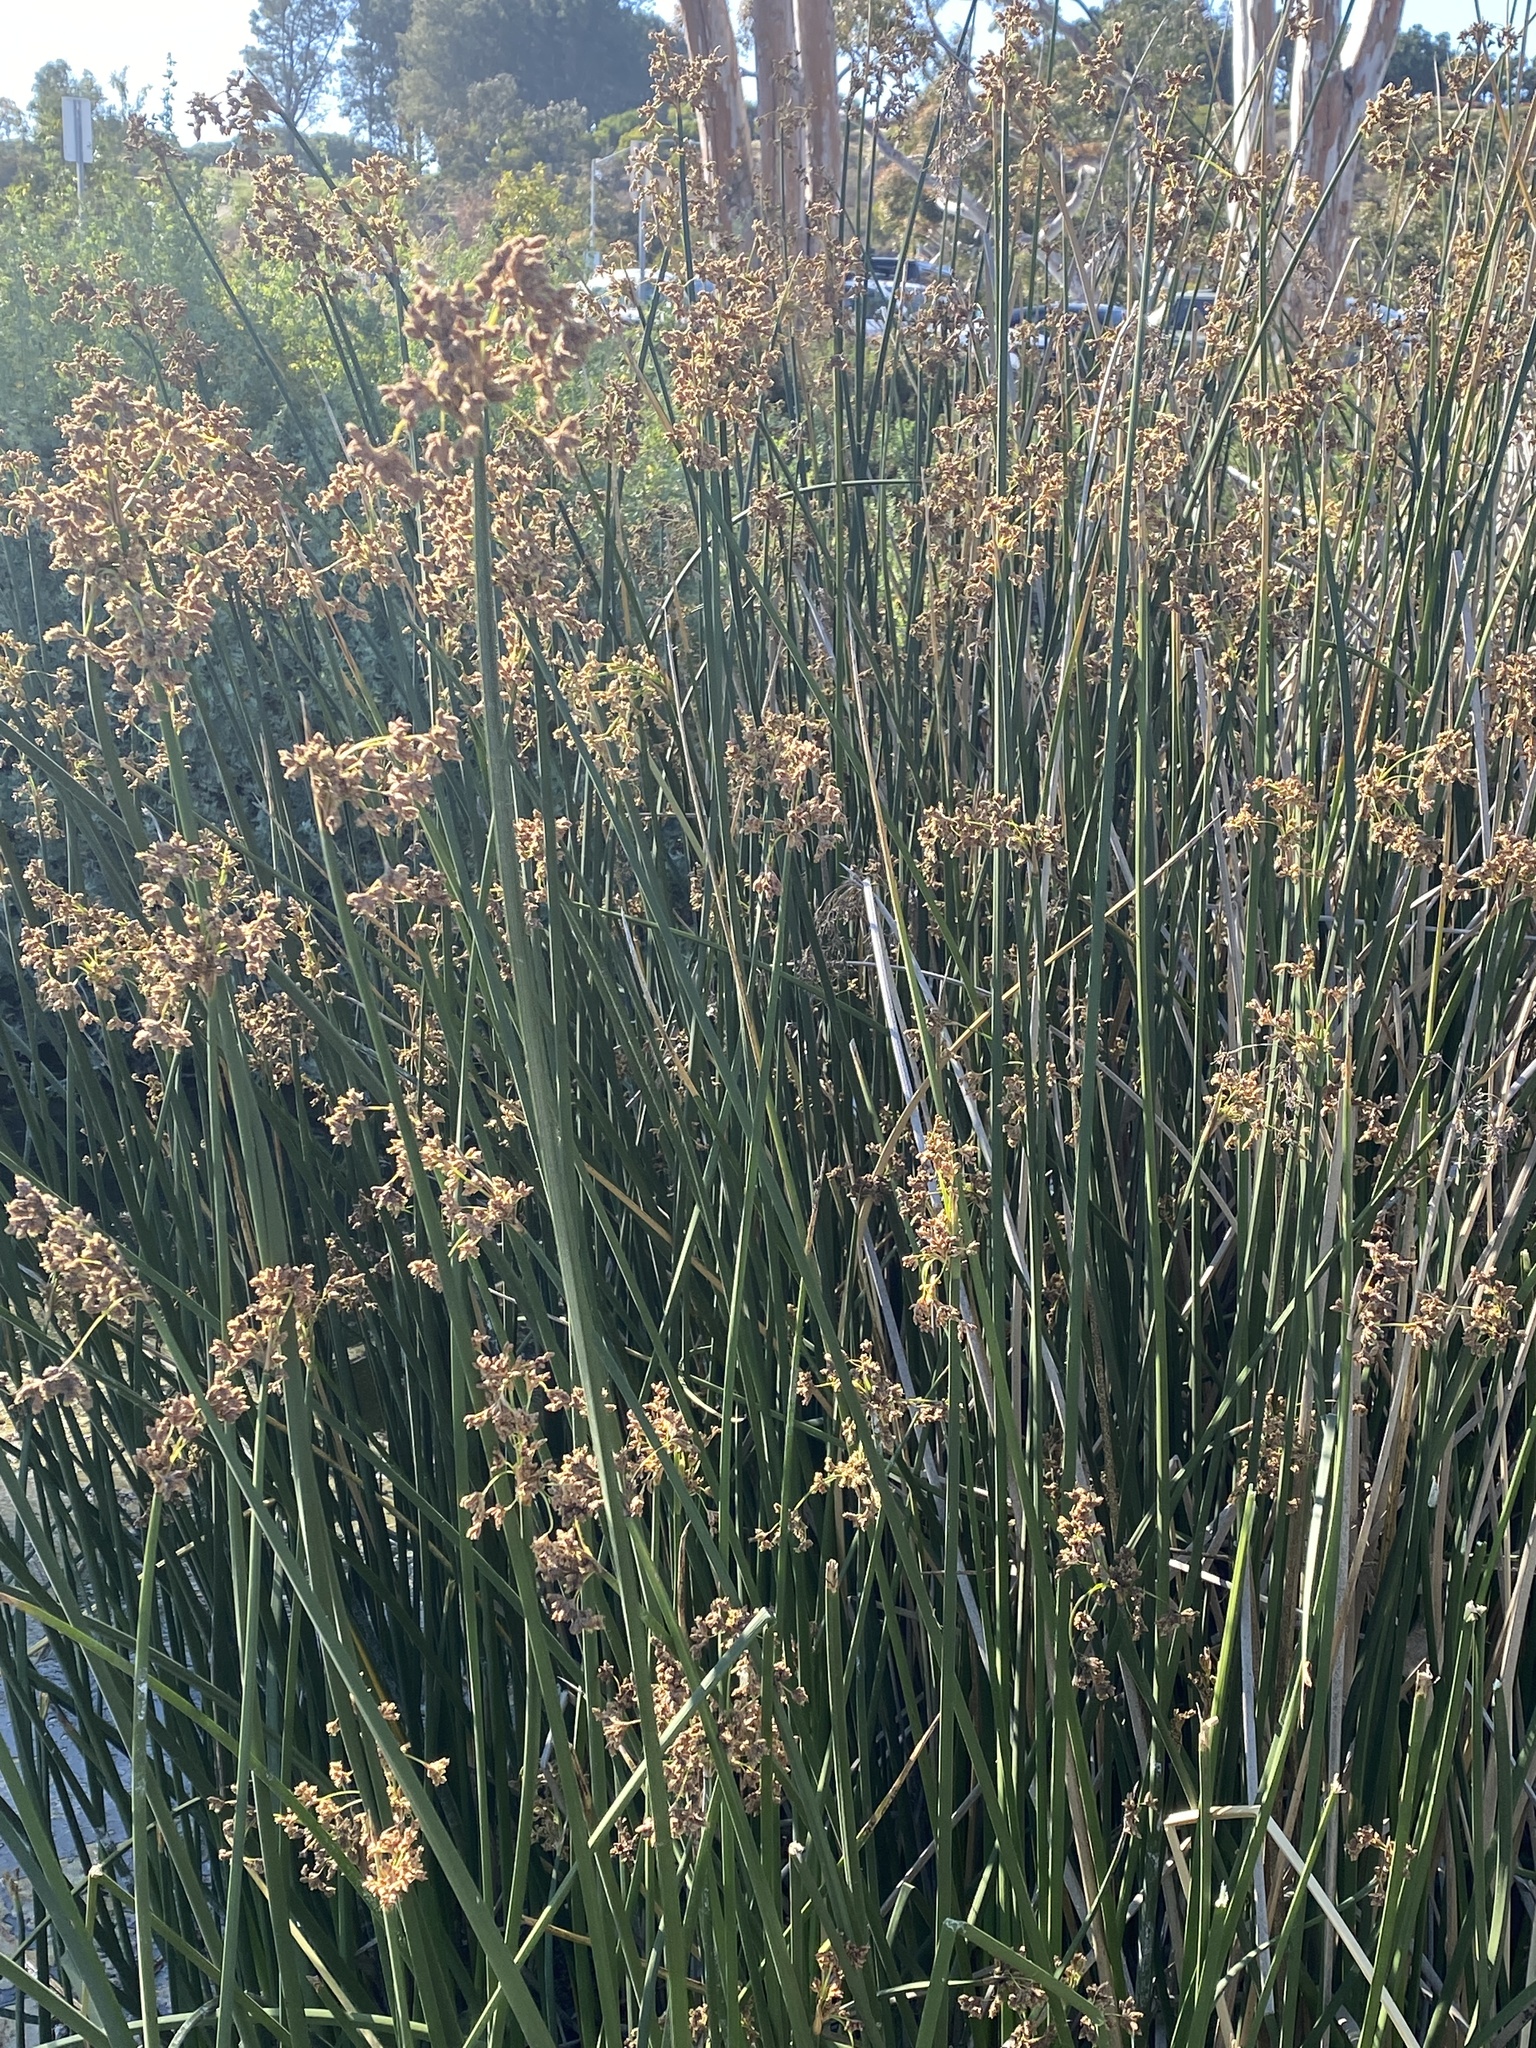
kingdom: Plantae
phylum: Tracheophyta
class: Liliopsida
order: Poales
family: Cyperaceae
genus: Schoenoplectus
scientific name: Schoenoplectus californicus
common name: California bulrush
